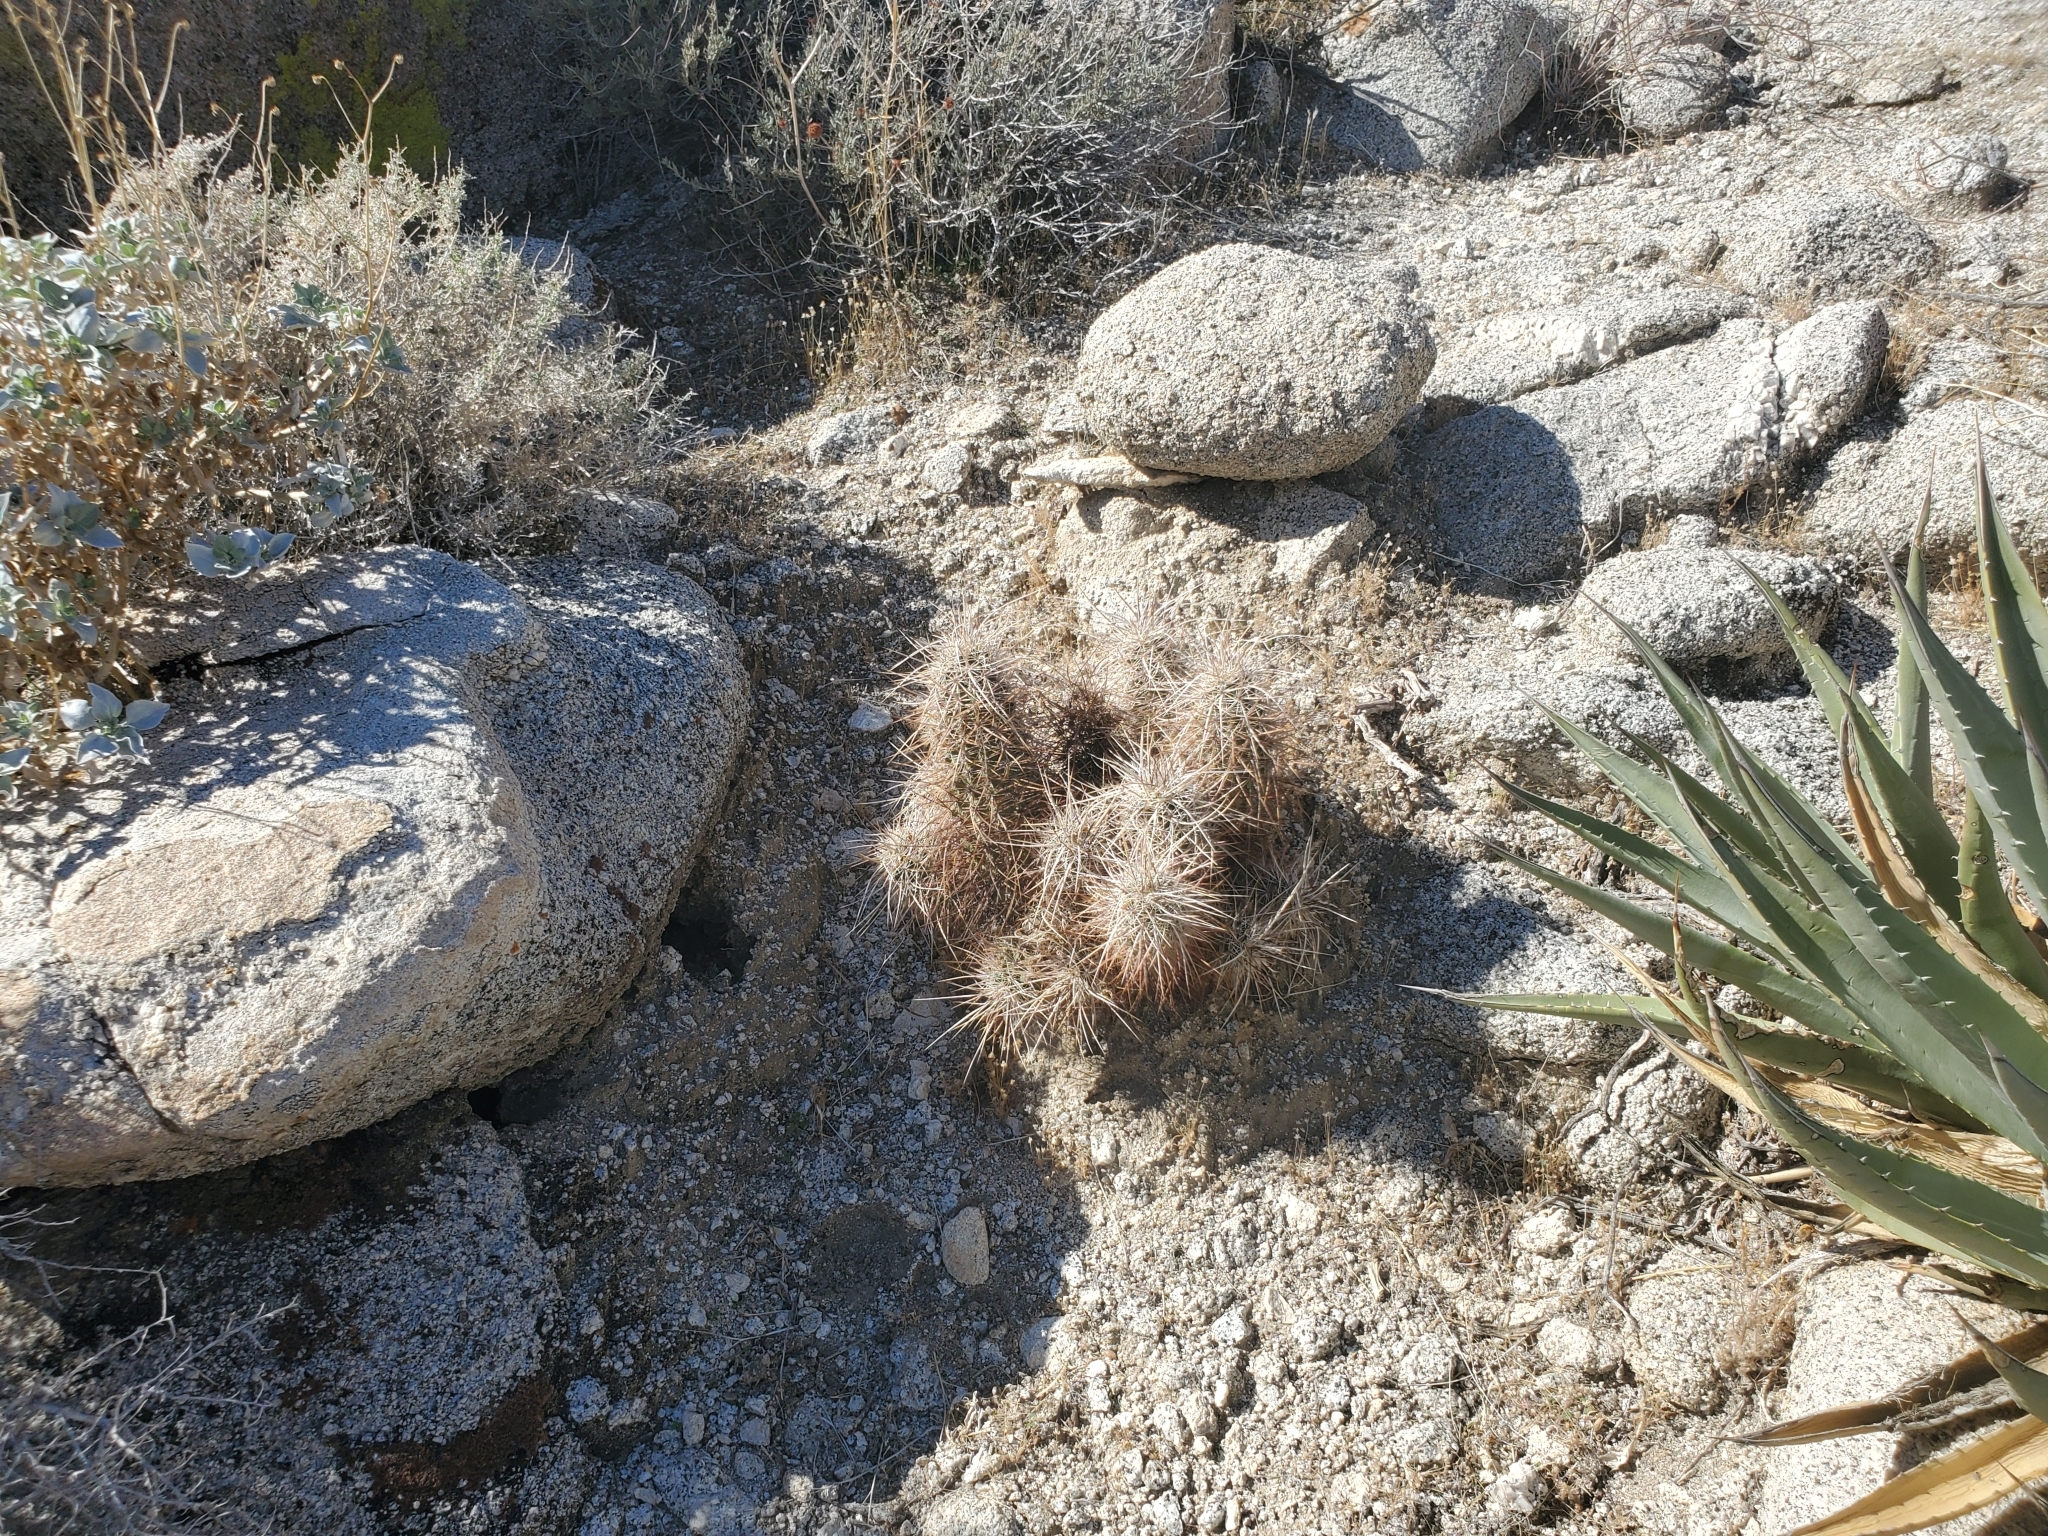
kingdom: Plantae
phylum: Tracheophyta
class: Magnoliopsida
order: Caryophyllales
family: Cactaceae
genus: Echinocereus
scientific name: Echinocereus engelmannii
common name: Engelmann's hedgehog cactus
